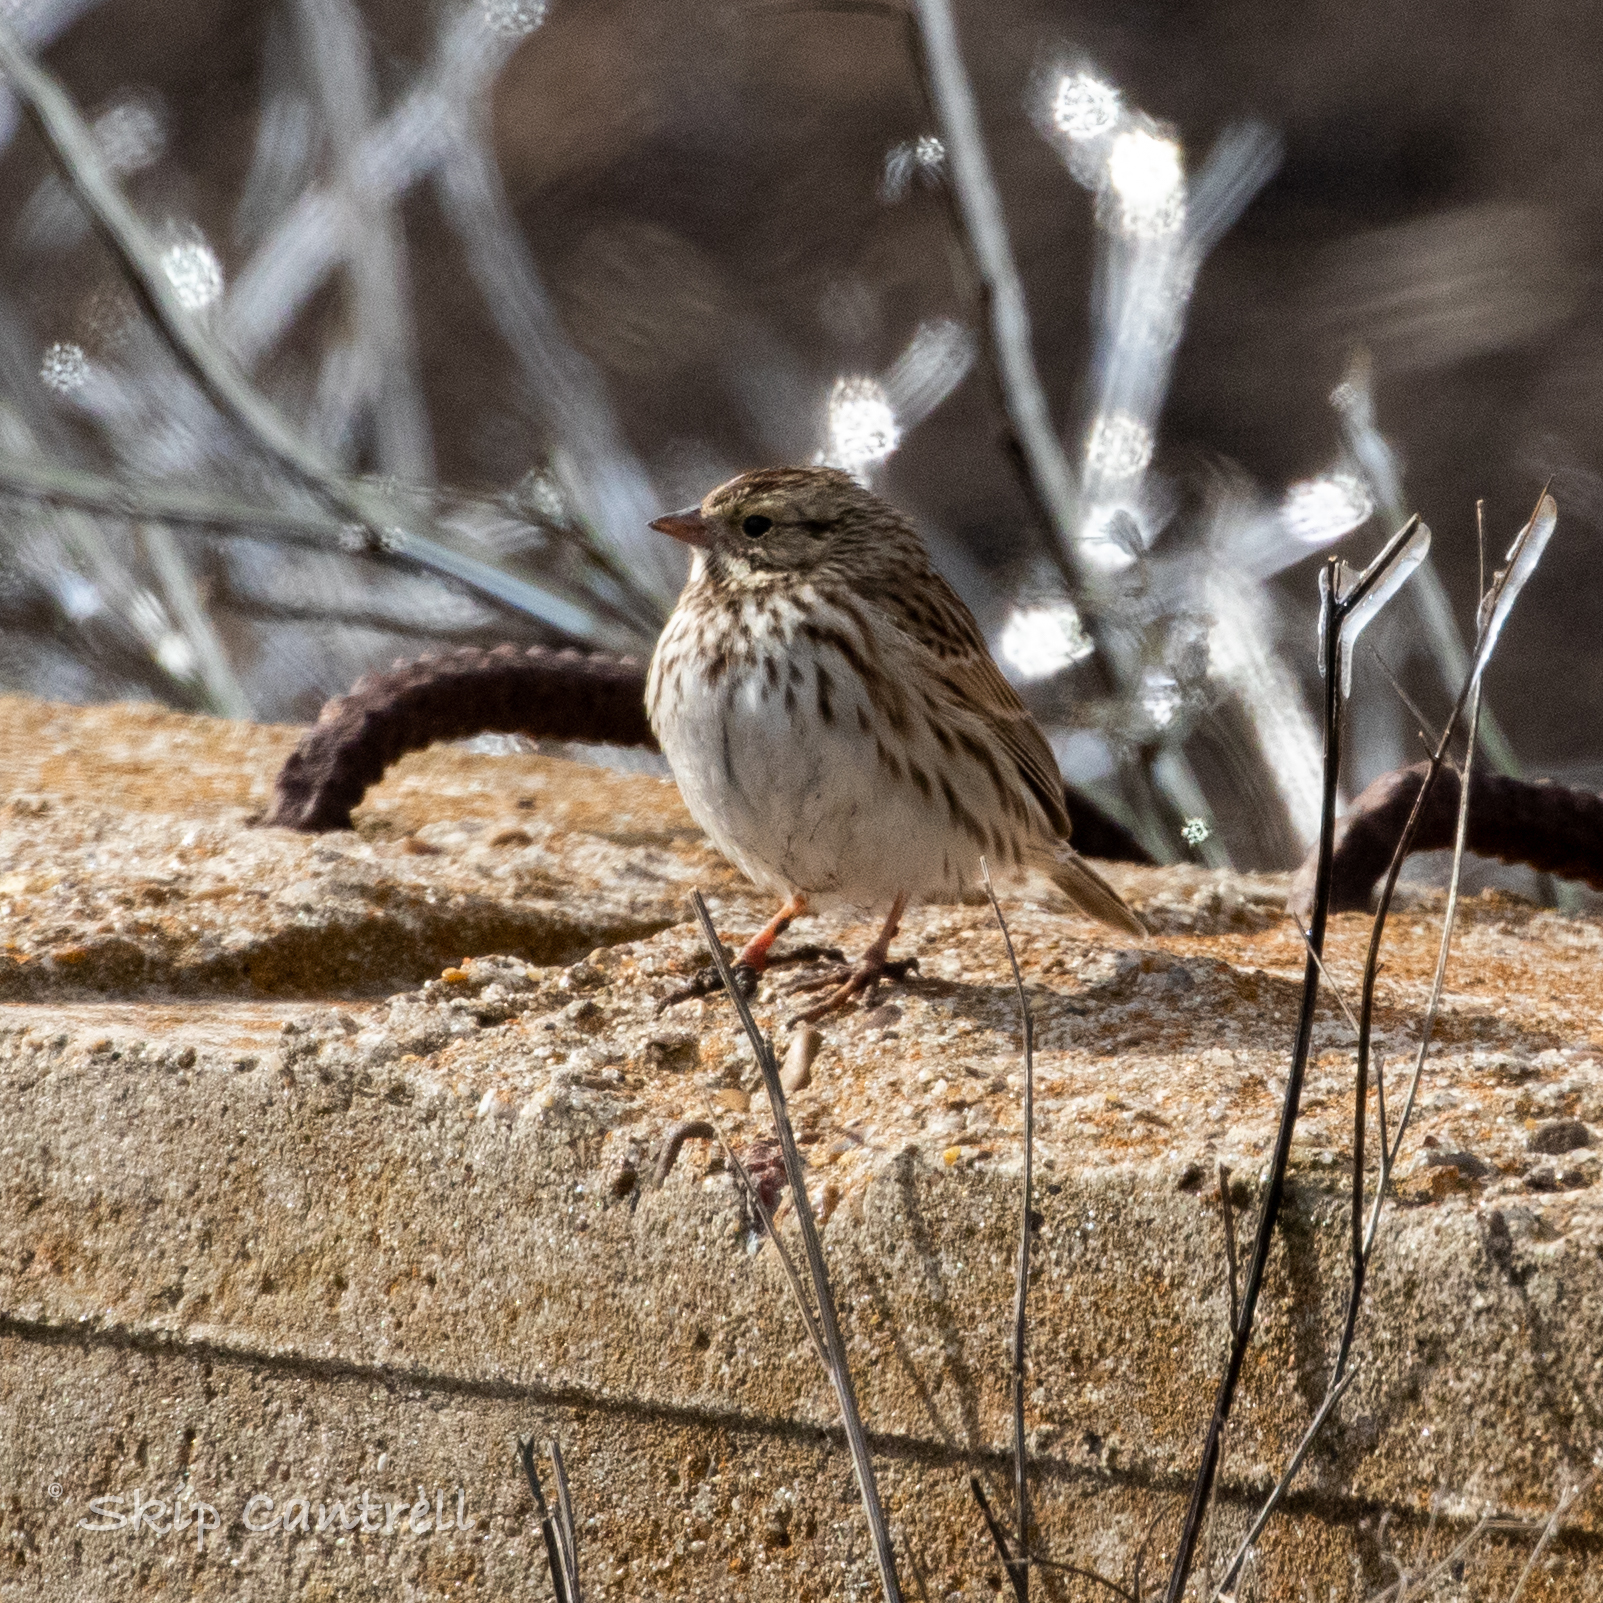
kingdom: Animalia
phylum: Chordata
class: Aves
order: Passeriformes
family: Passerellidae
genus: Passerculus
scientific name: Passerculus sandwichensis
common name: Savannah sparrow
